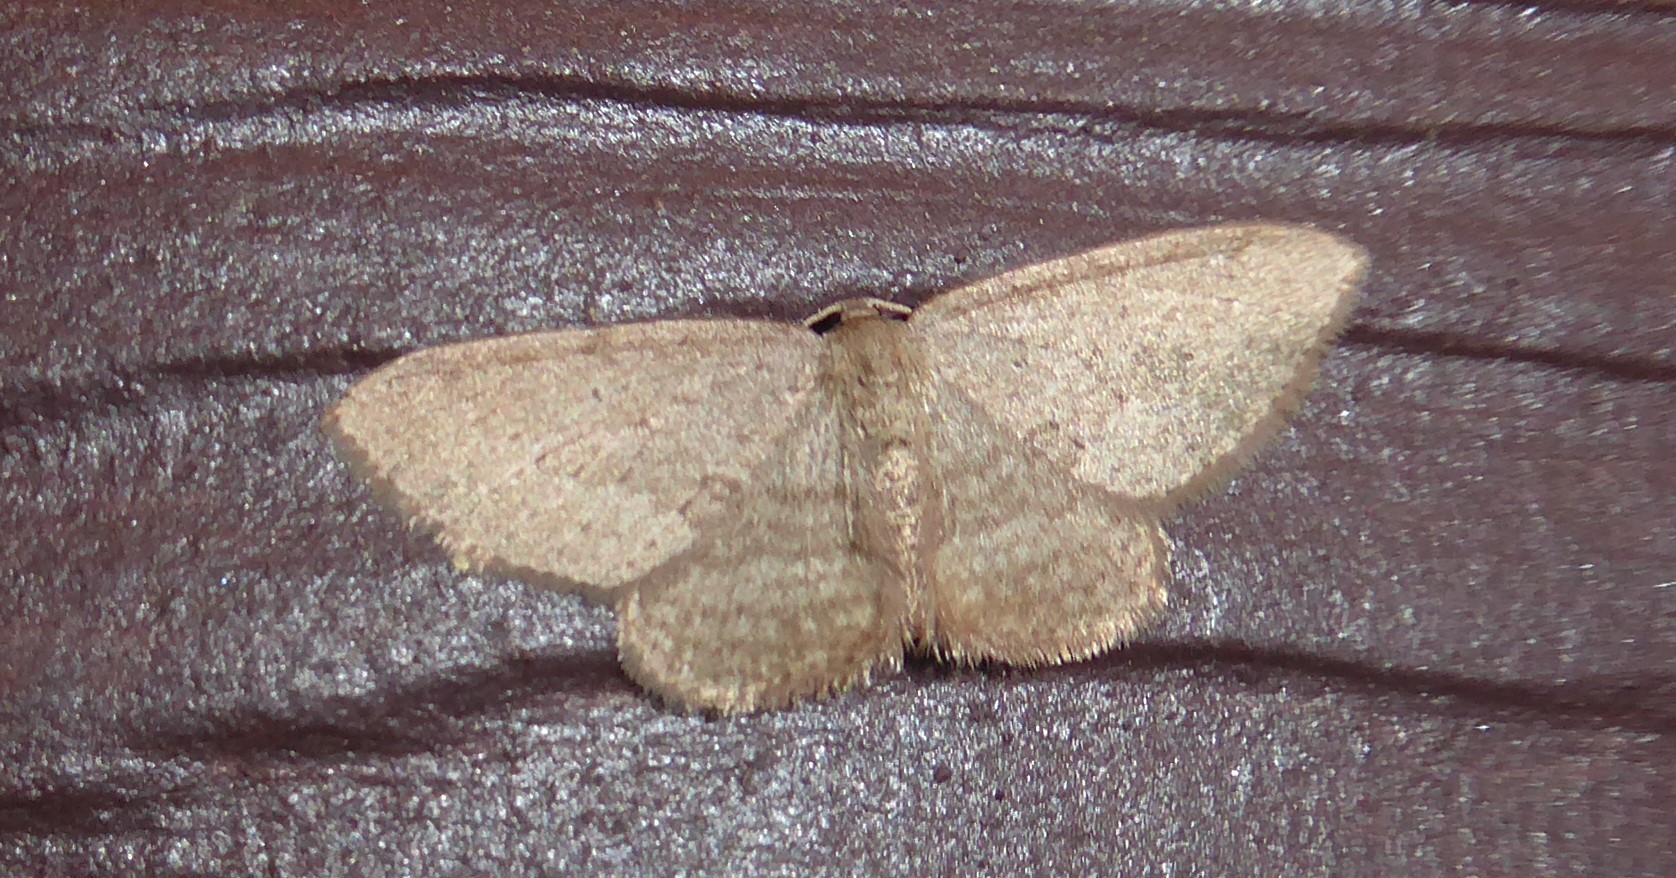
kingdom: Animalia
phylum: Arthropoda
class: Insecta
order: Lepidoptera
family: Geometridae
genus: Poecilasthena
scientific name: Poecilasthena schistaria
